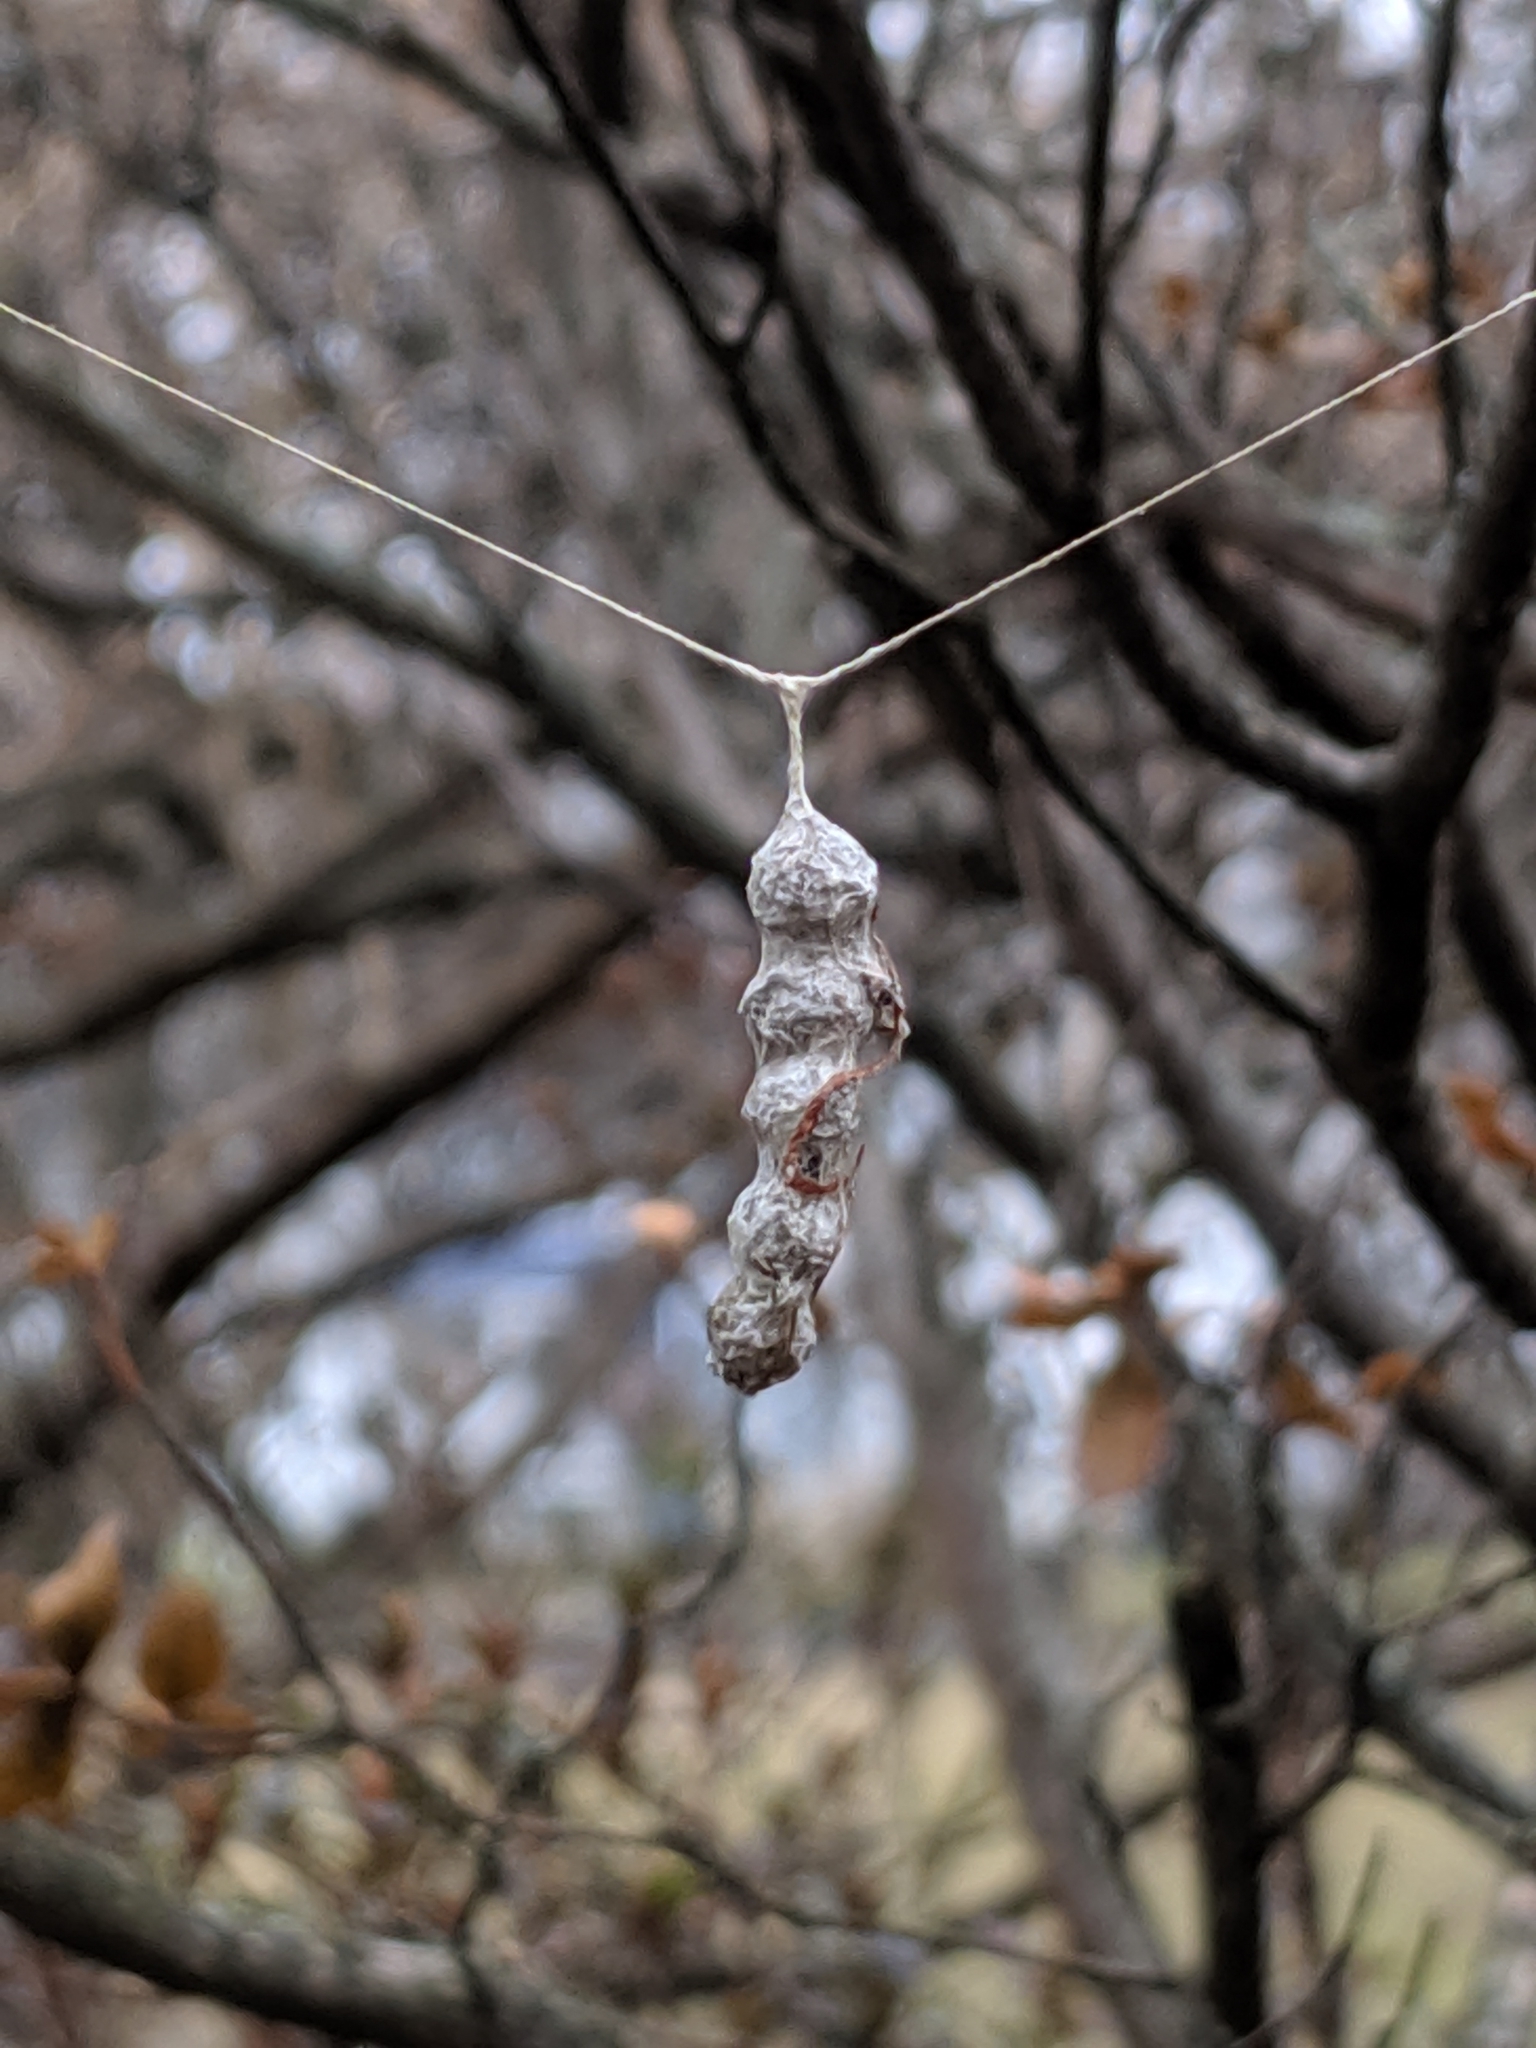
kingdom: Animalia
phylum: Arthropoda
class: Arachnida
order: Araneae
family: Araneidae
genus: Mecynogea
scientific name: Mecynogea lemniscata
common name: Orb weavers
